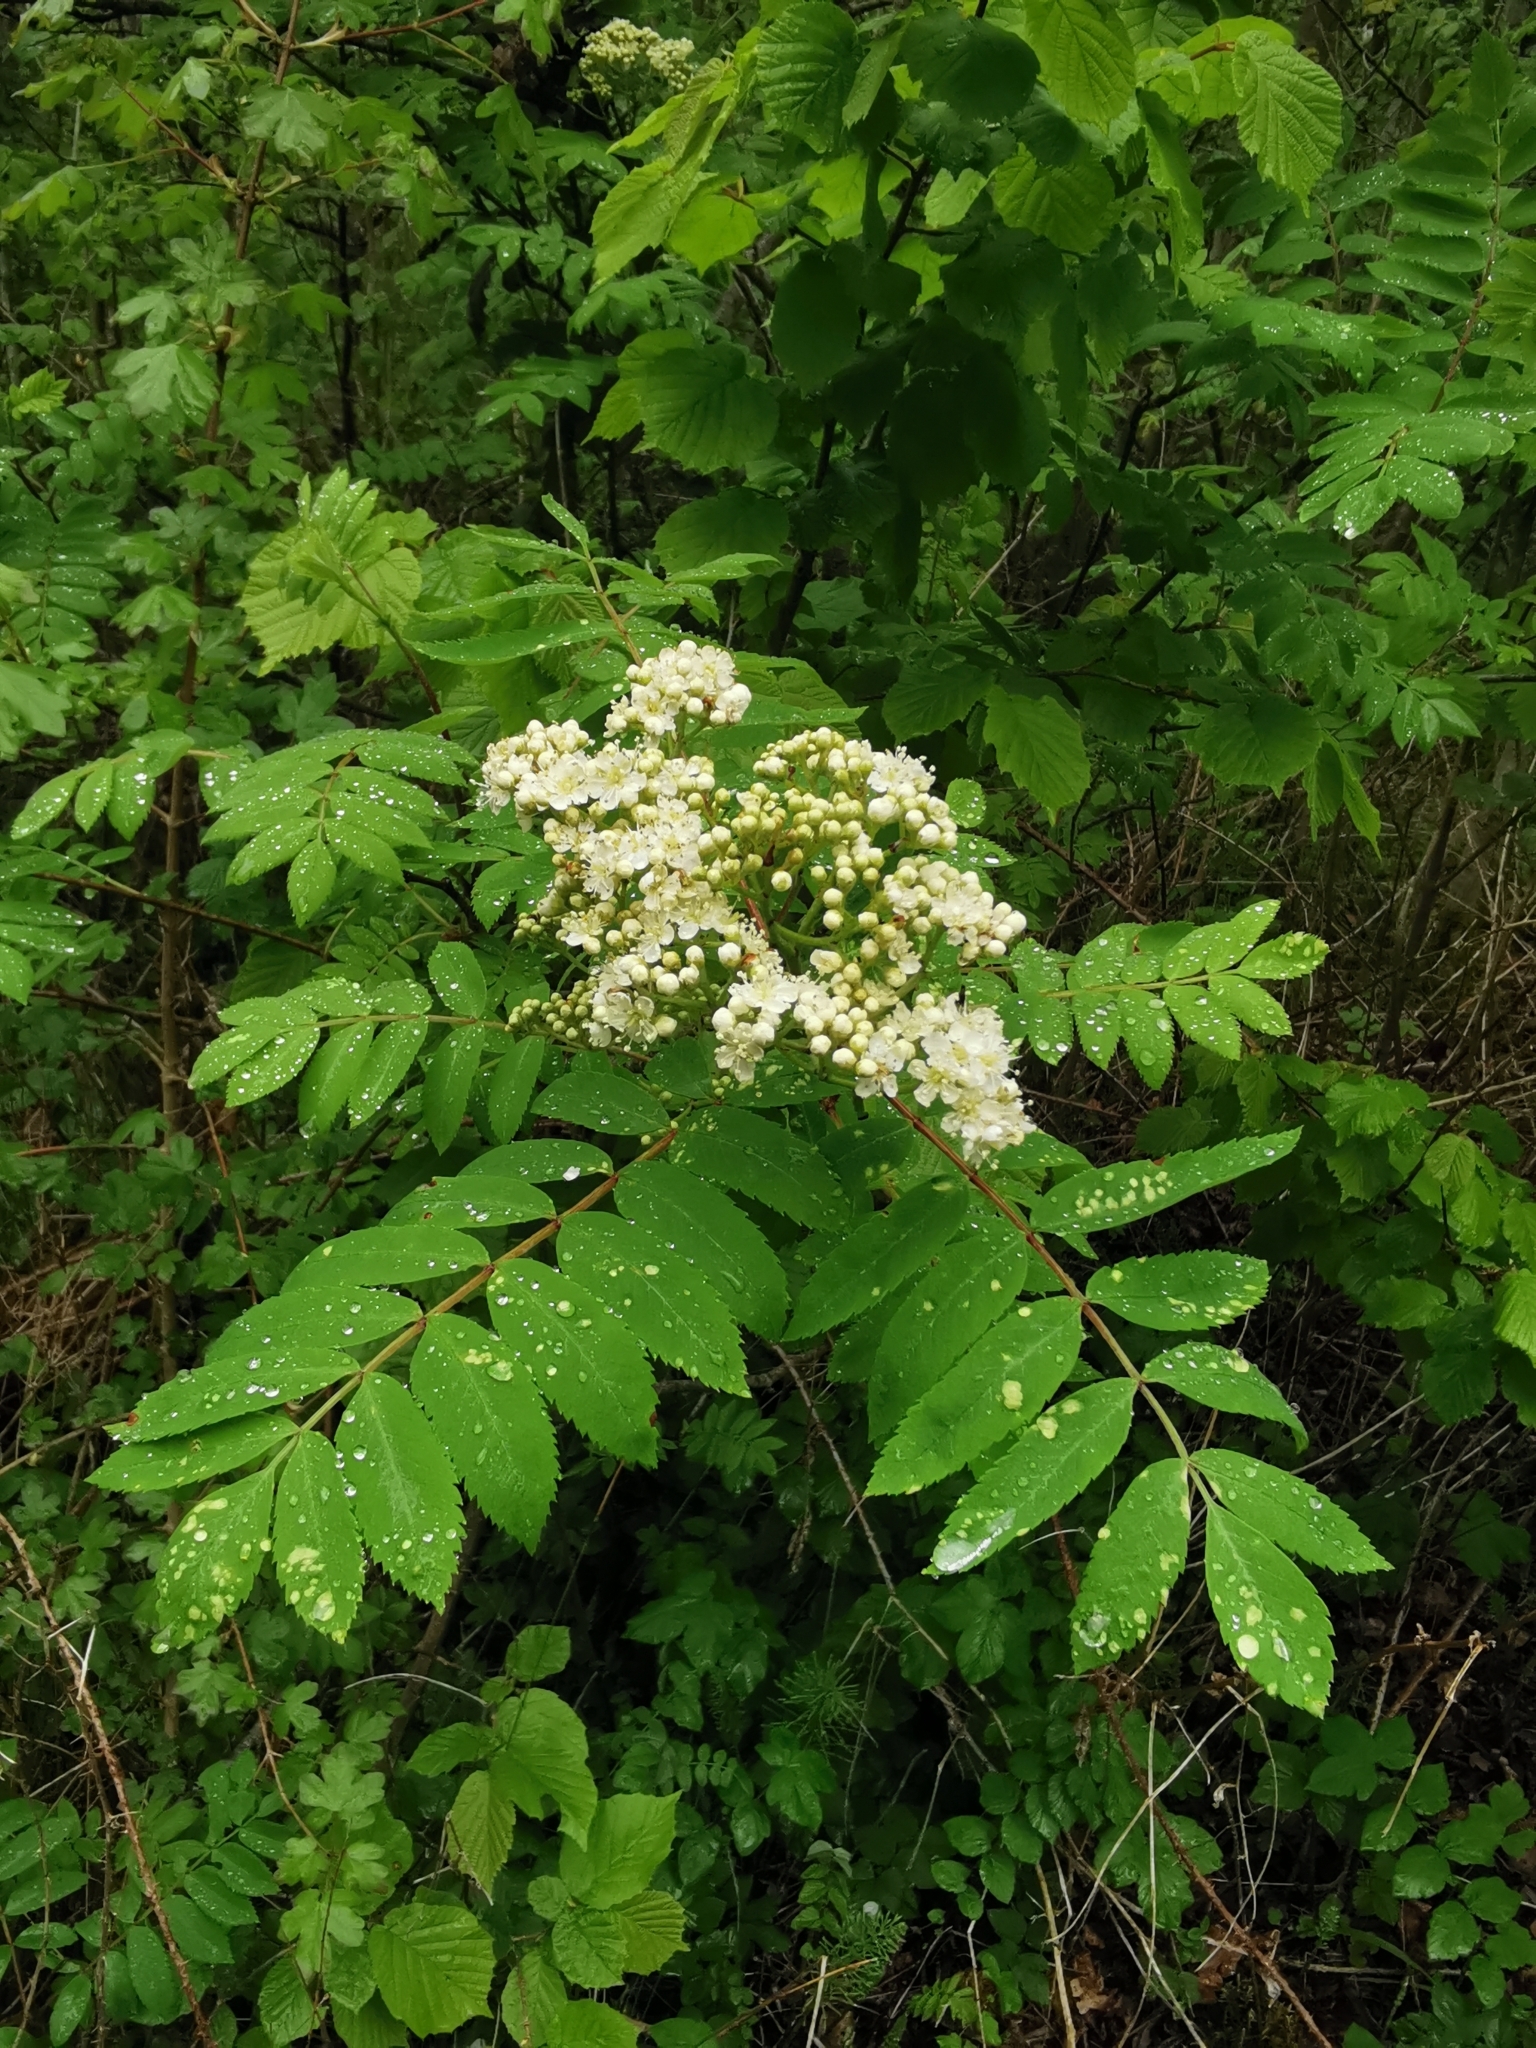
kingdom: Plantae
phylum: Tracheophyta
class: Magnoliopsida
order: Rosales
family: Rosaceae
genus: Sorbus
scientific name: Sorbus aucuparia
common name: Rowan
